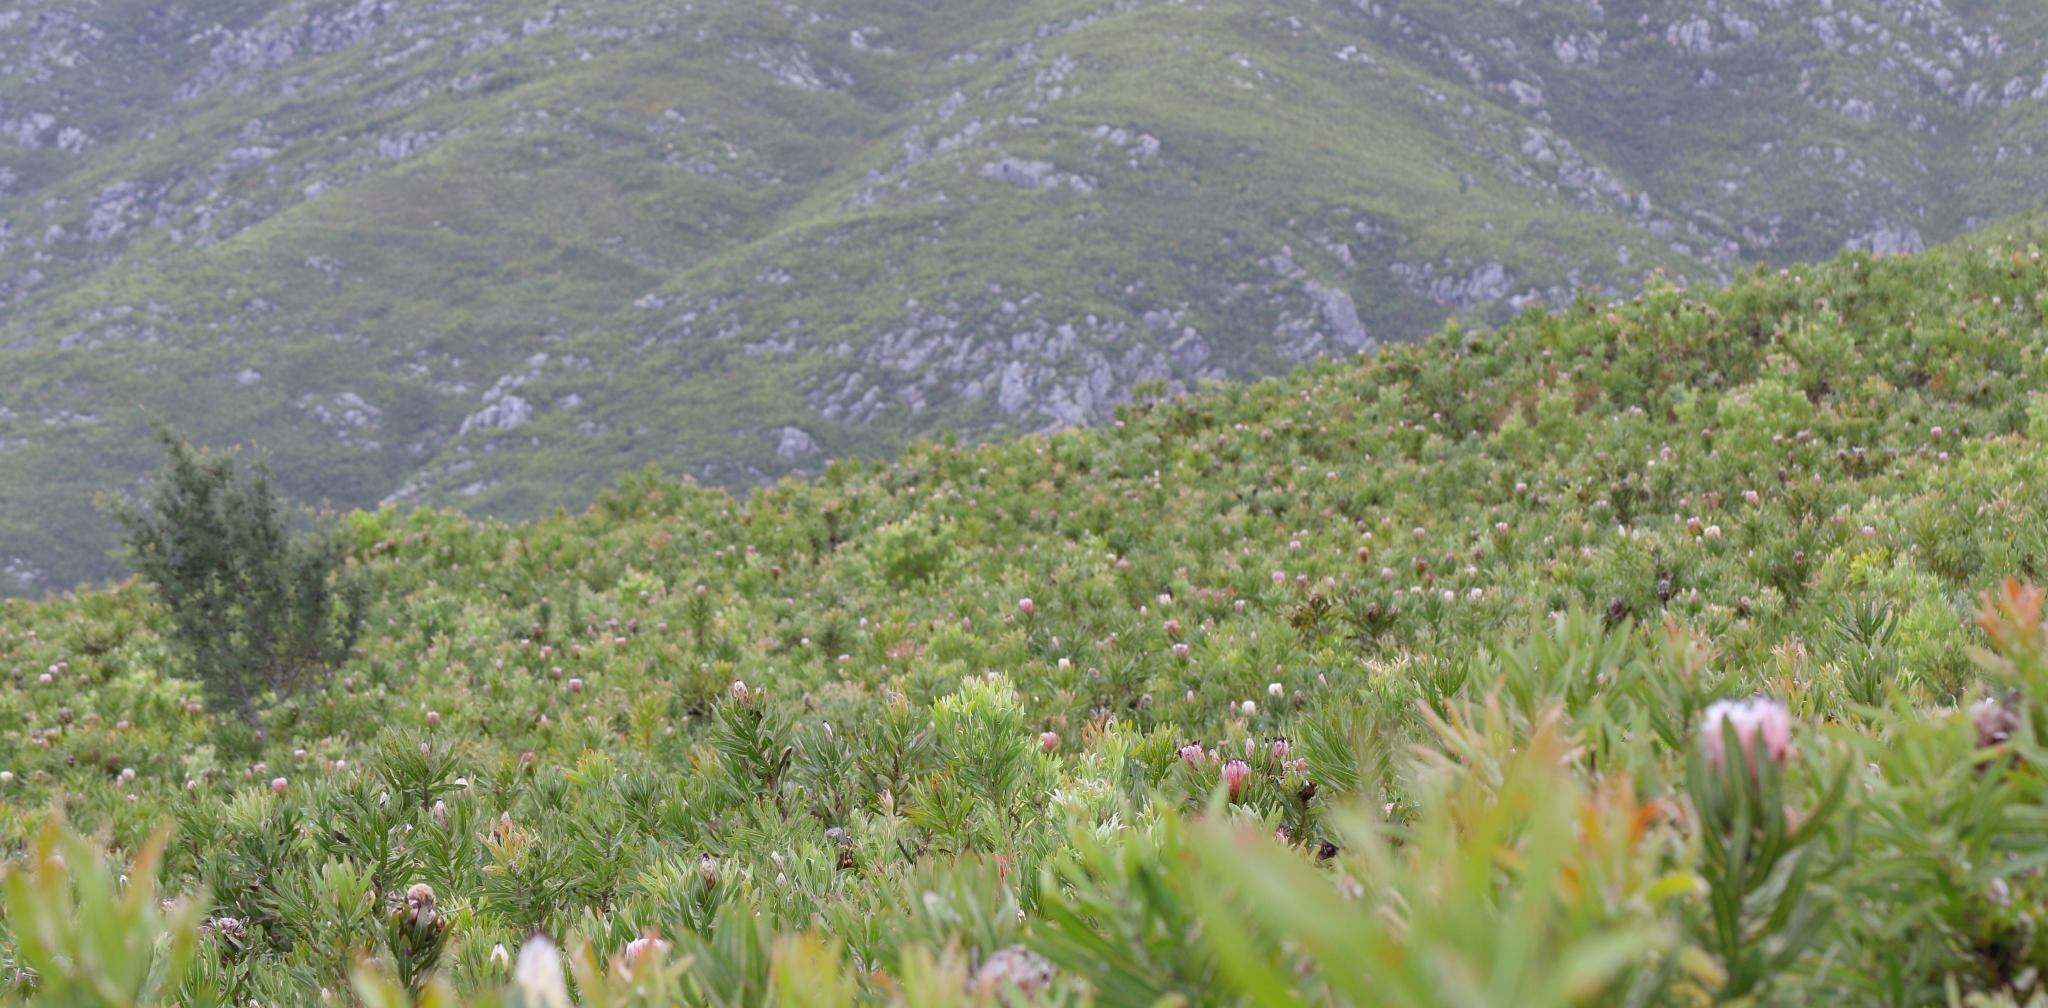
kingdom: Plantae
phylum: Tracheophyta
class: Magnoliopsida
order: Proteales
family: Proteaceae
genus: Hakea
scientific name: Hakea sericea
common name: Needle bush
